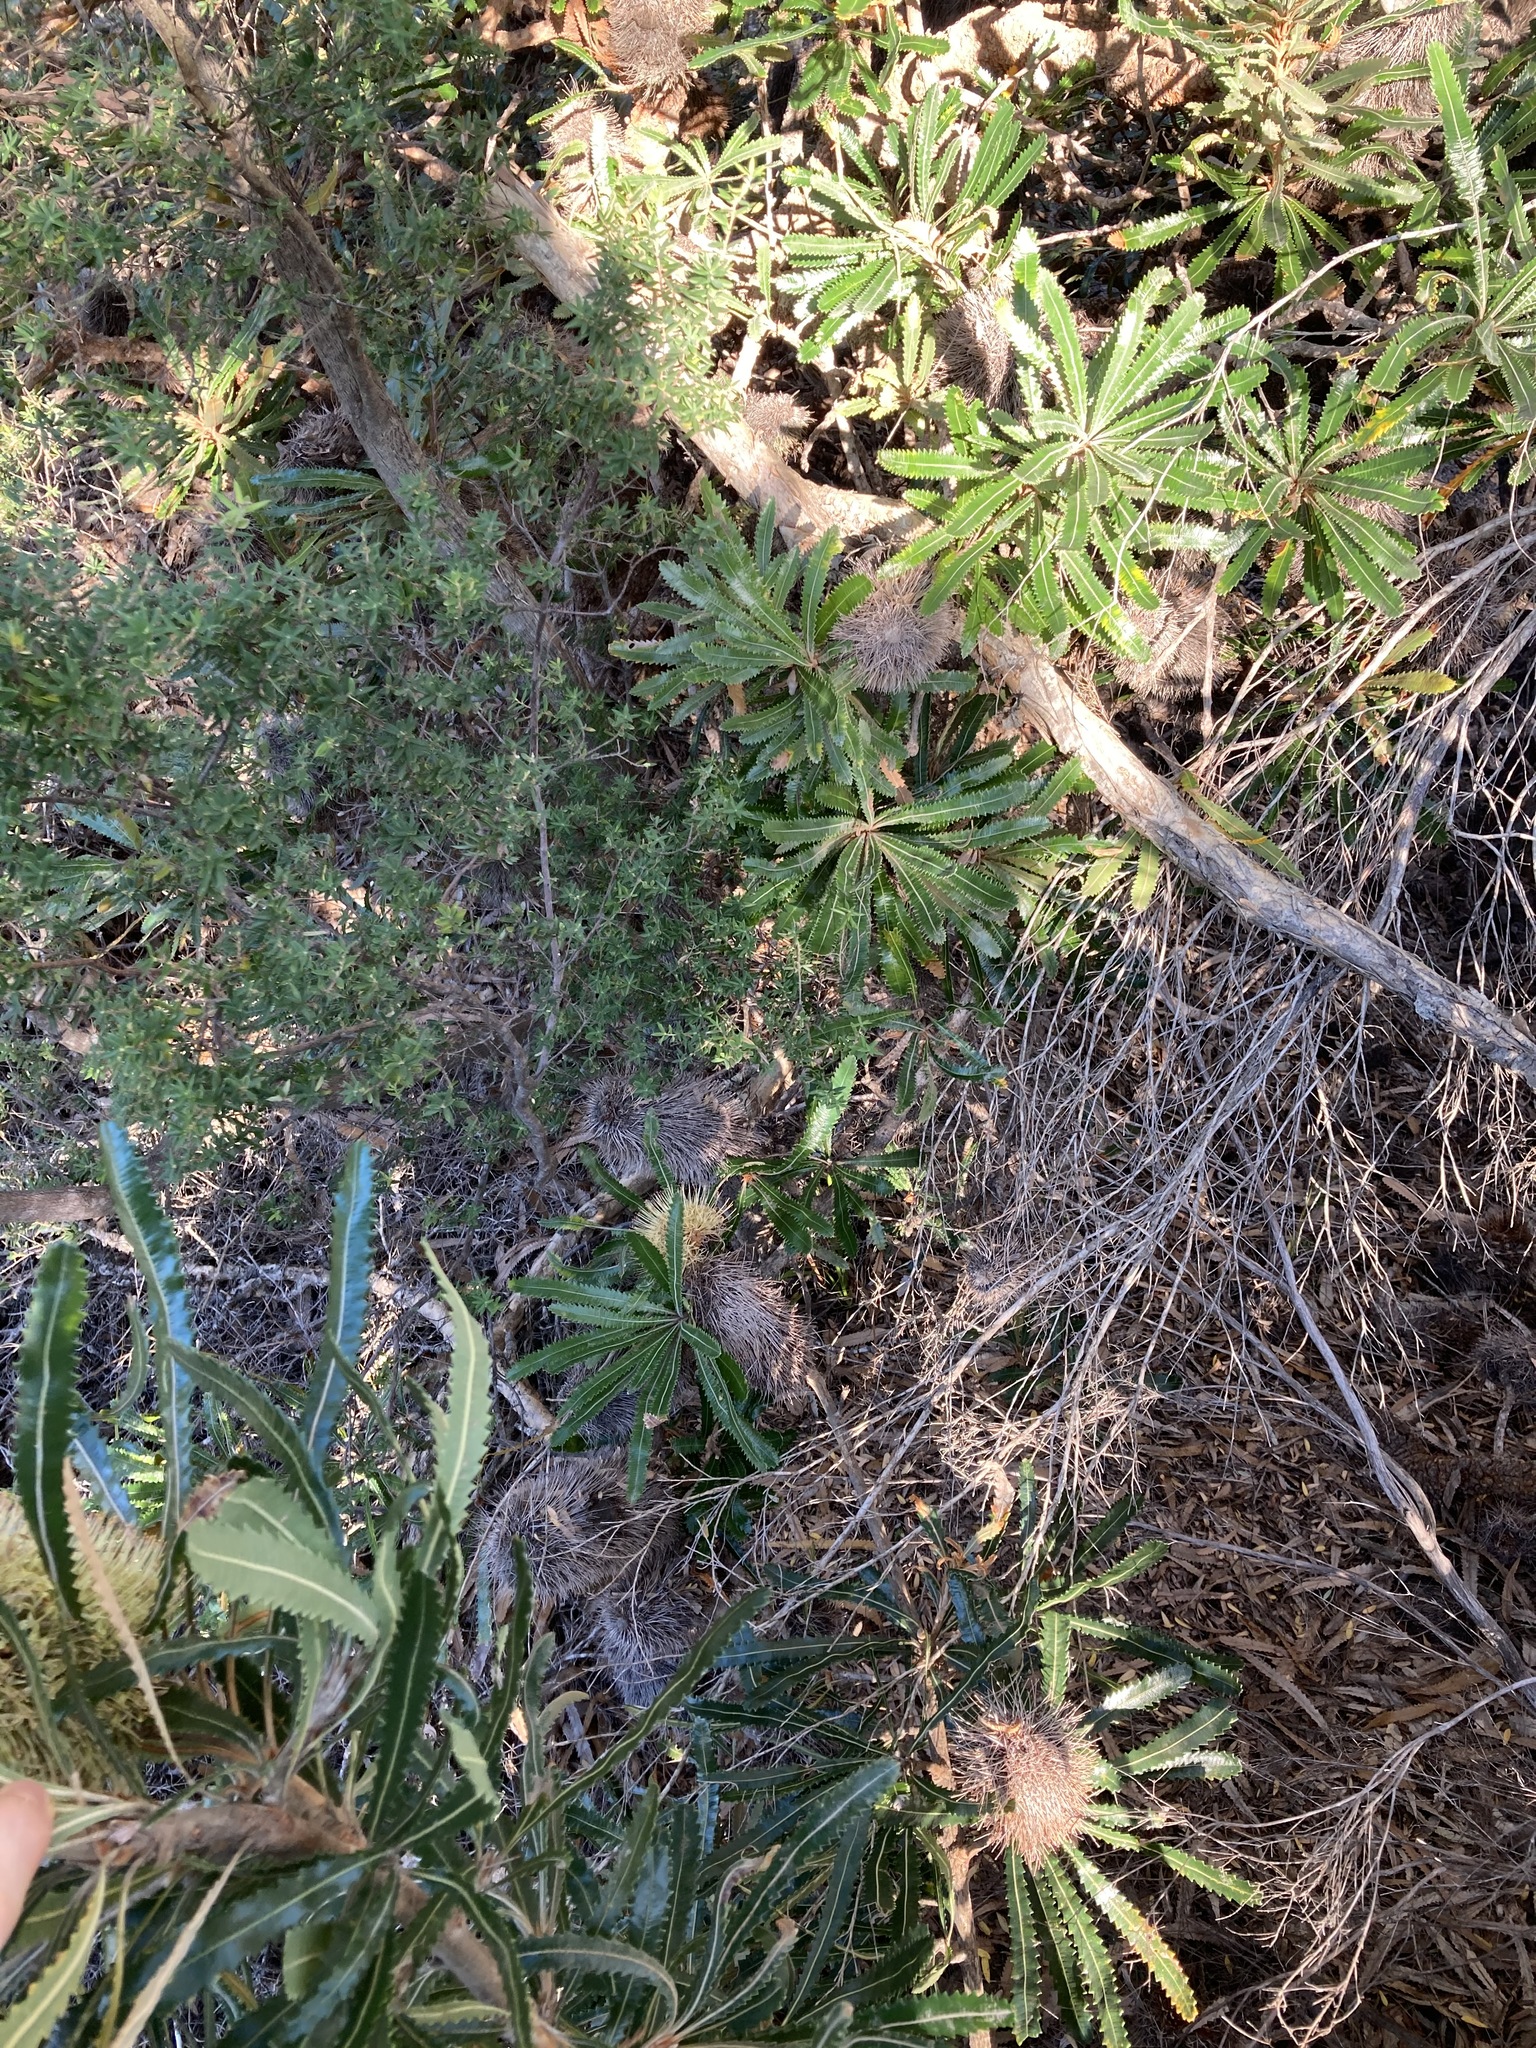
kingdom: Plantae
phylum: Tracheophyta
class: Magnoliopsida
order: Proteales
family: Proteaceae
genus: Banksia
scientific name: Banksia aemula
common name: Wallum banksia
